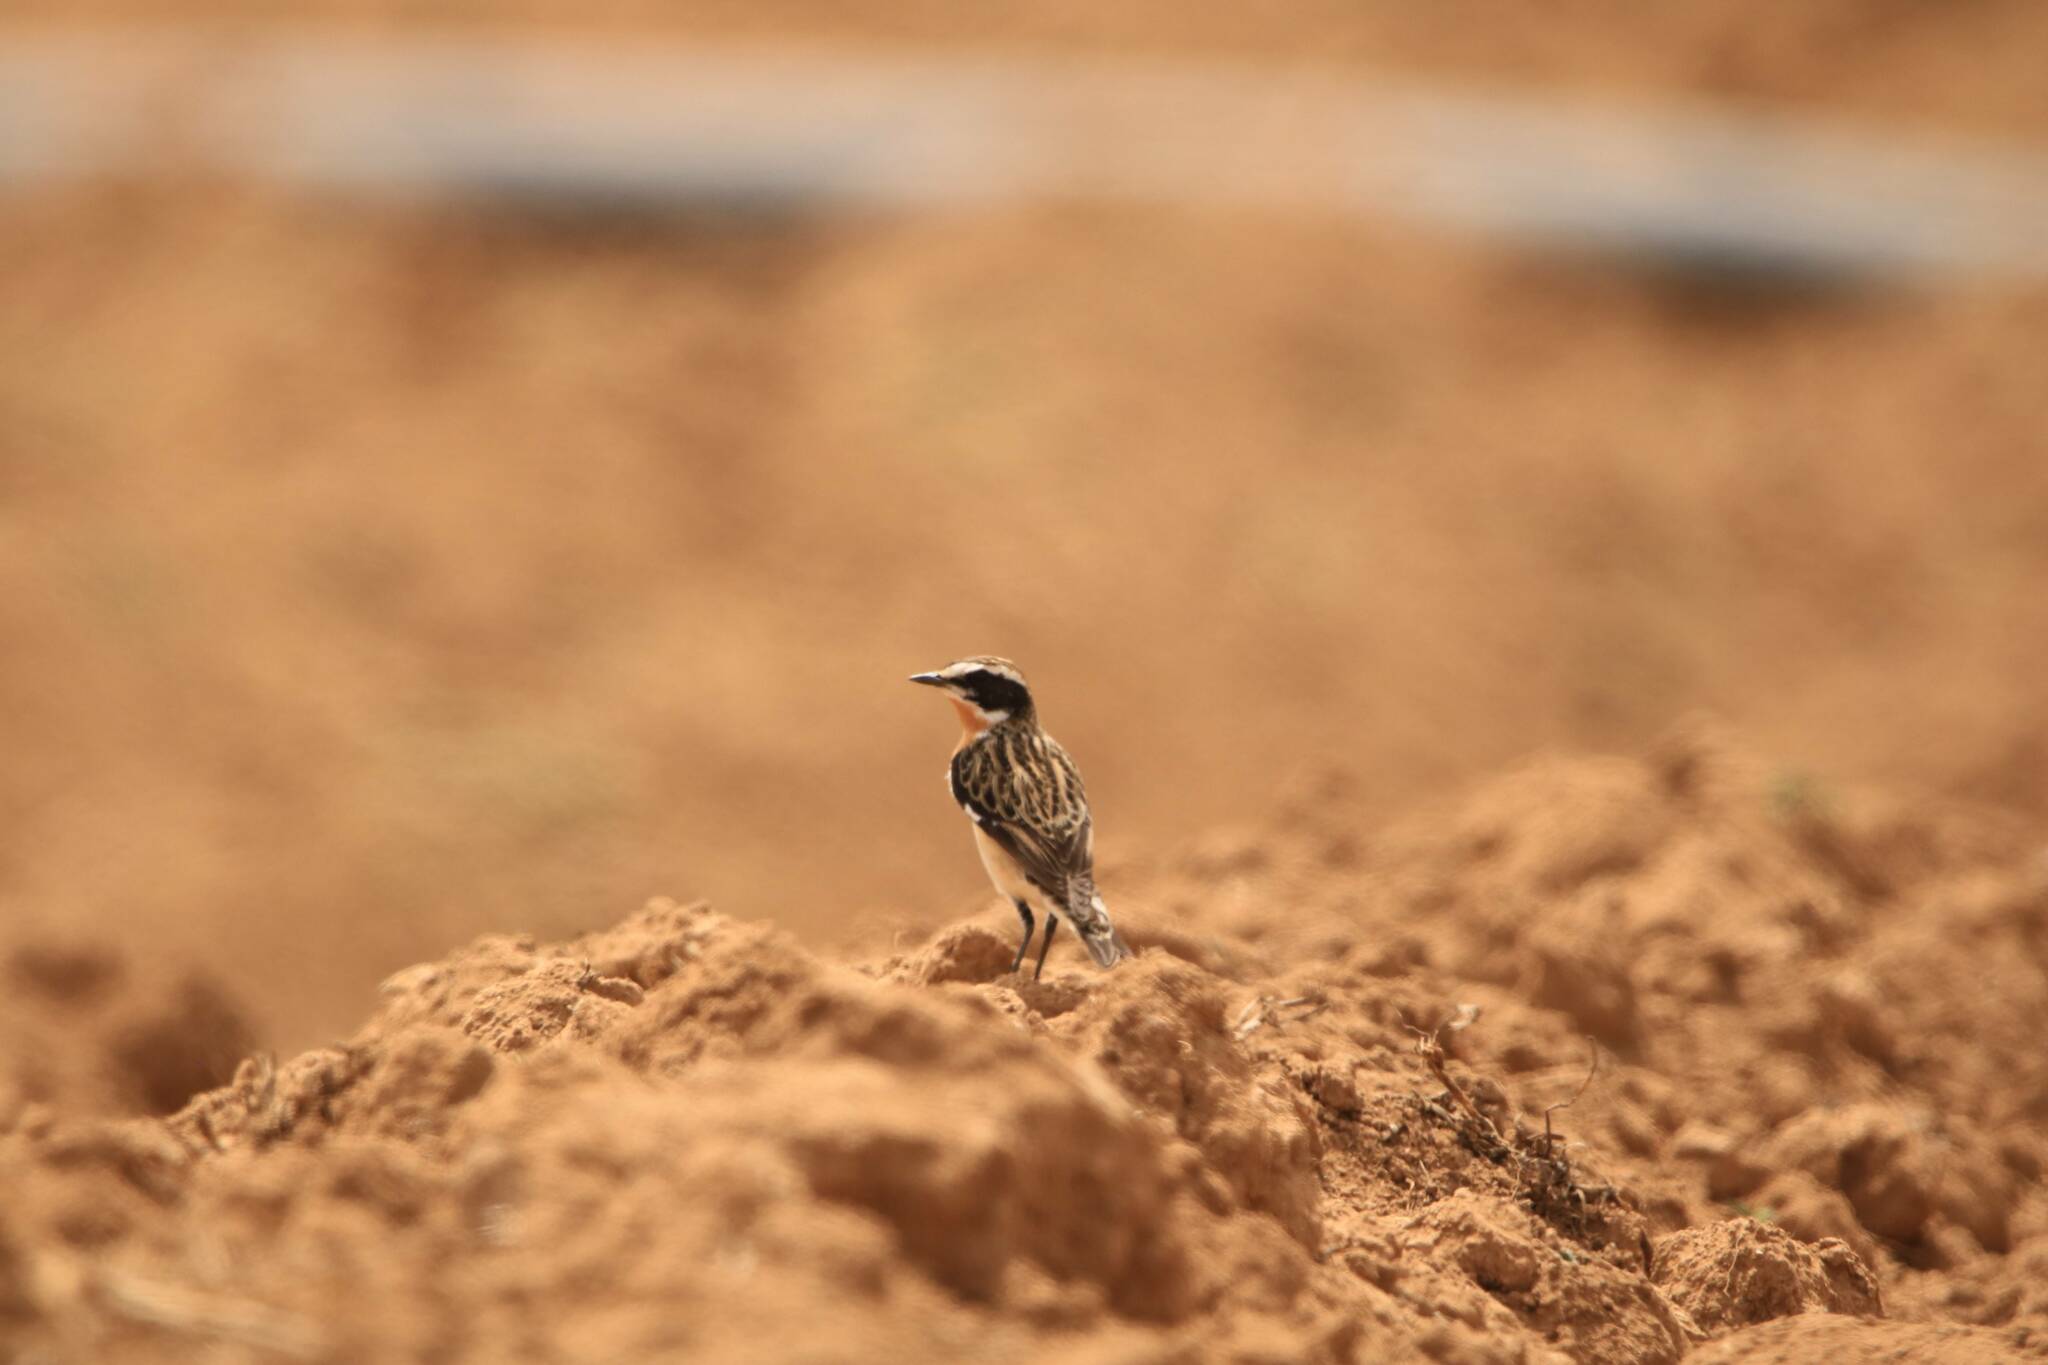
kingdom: Animalia
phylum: Chordata
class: Aves
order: Passeriformes
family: Muscicapidae
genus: Saxicola
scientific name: Saxicola rubetra
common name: Whinchat
